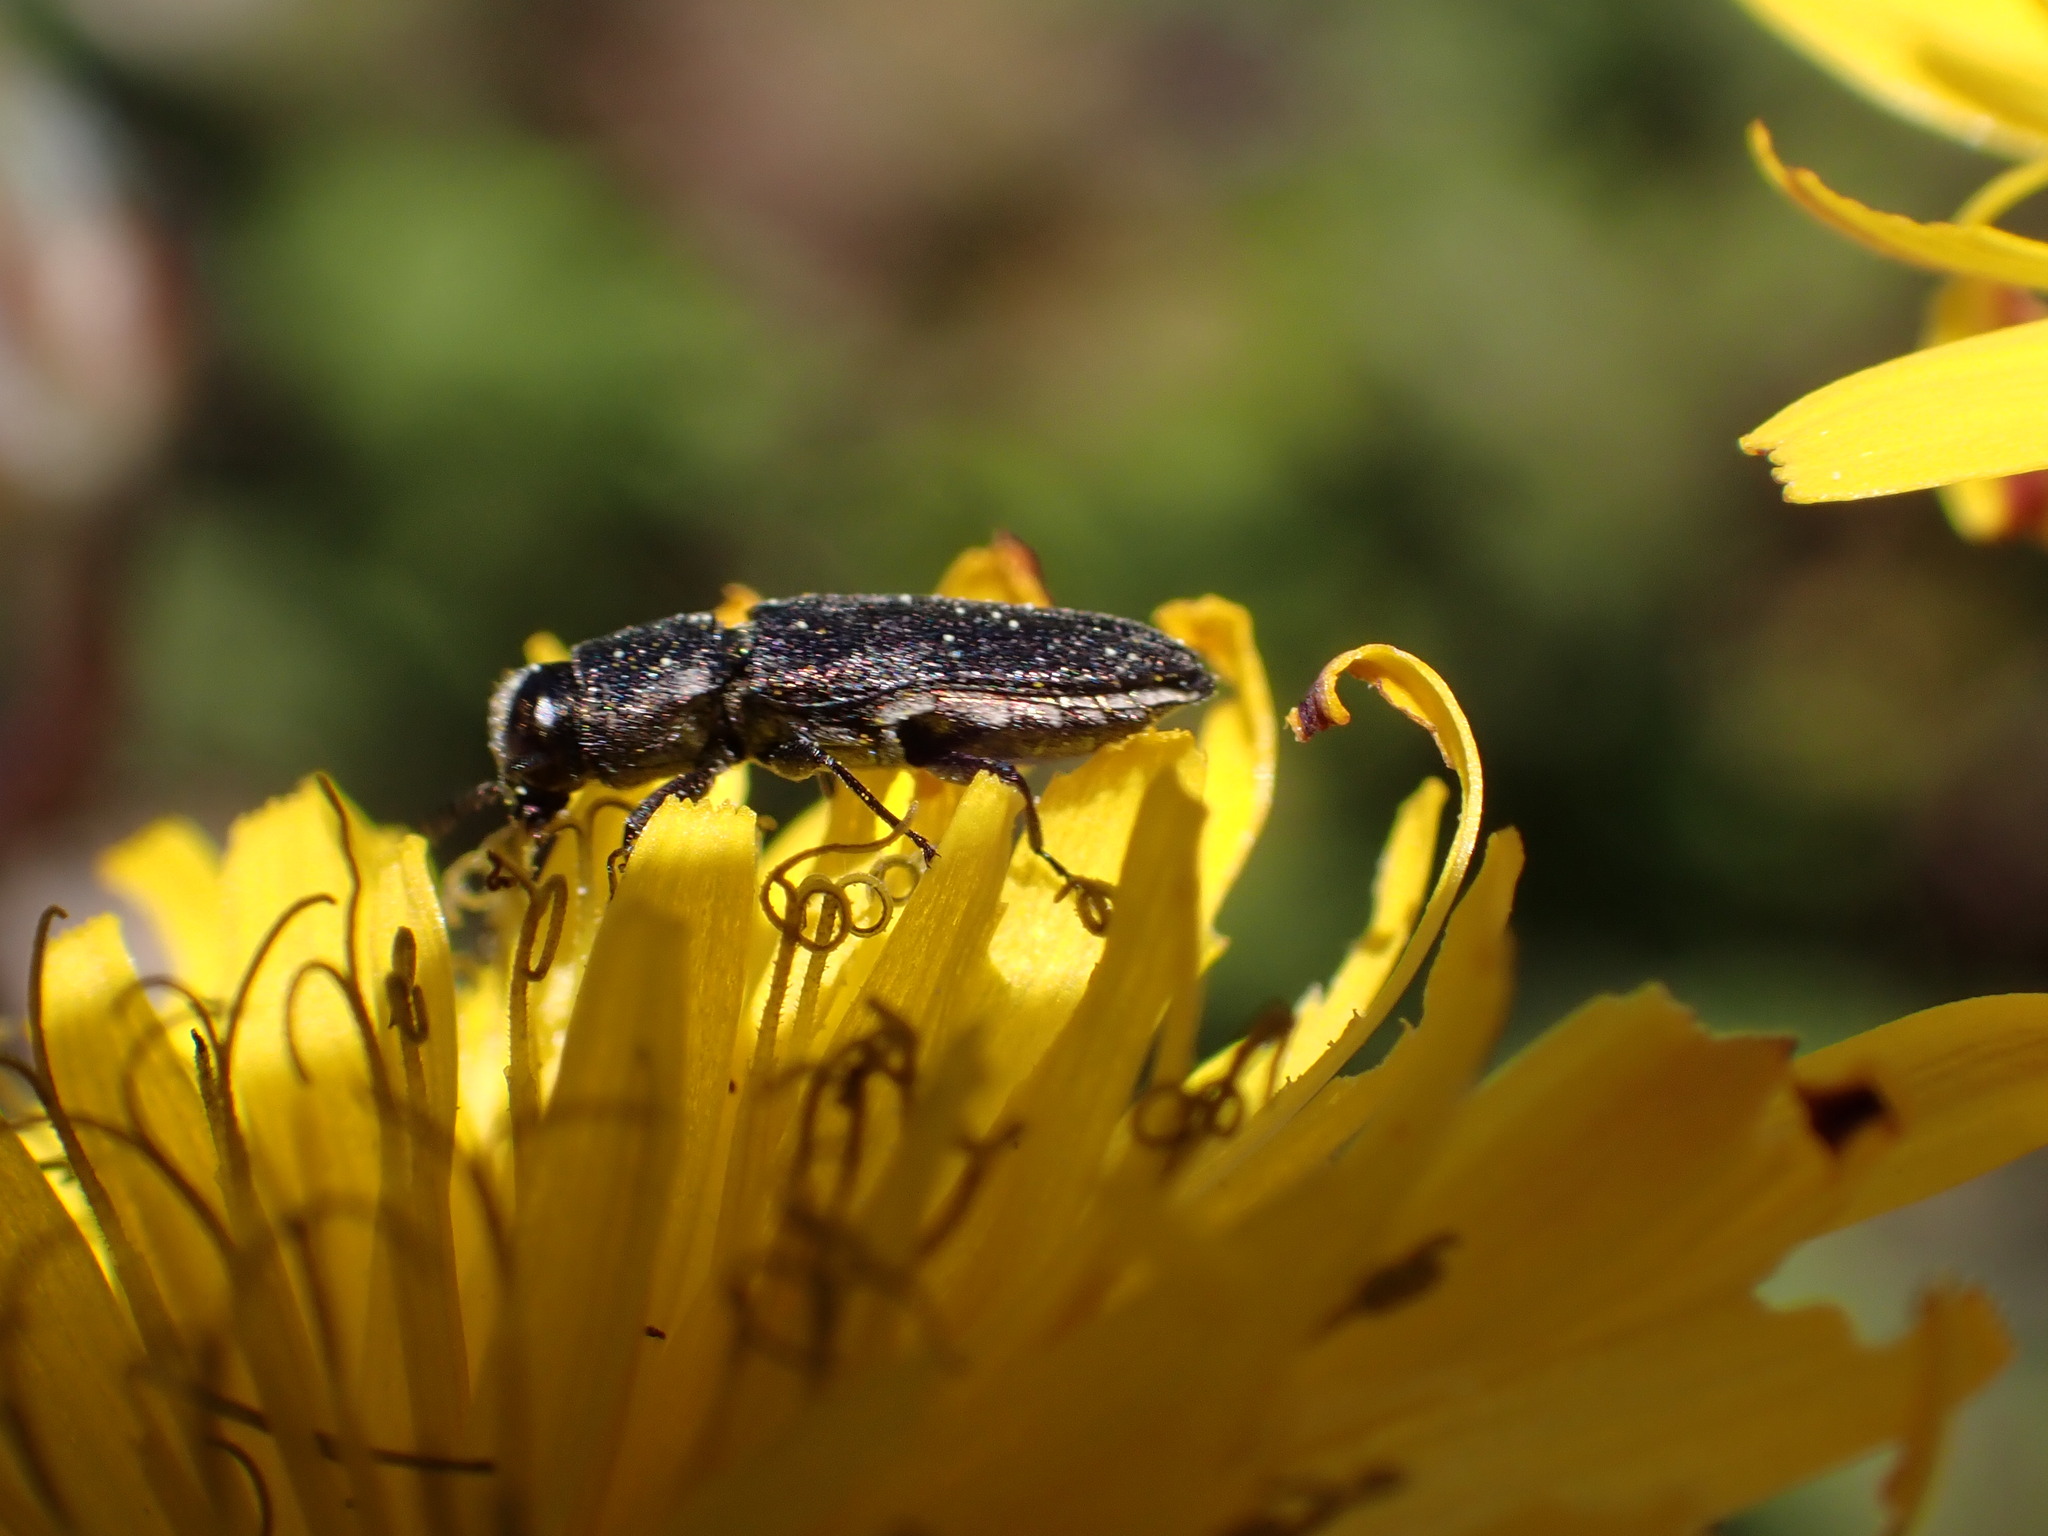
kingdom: Animalia
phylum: Arthropoda
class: Insecta
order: Coleoptera
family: Buprestidae
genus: Anthaxia
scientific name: Anthaxia confusa
